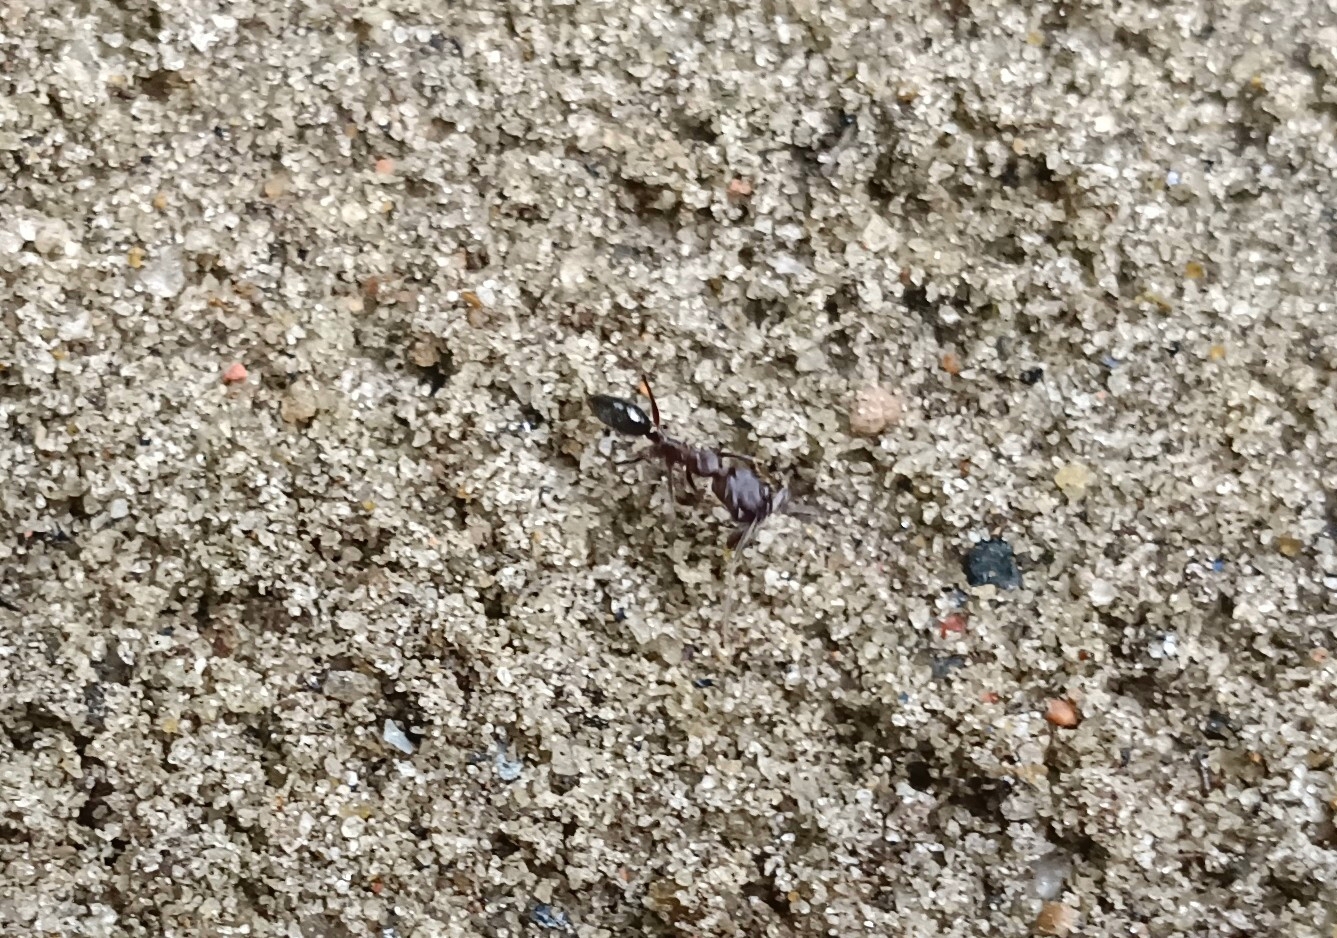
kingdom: Animalia
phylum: Arthropoda
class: Insecta
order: Hymenoptera
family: Formicidae
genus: Odontomachus
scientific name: Odontomachus simillimus
